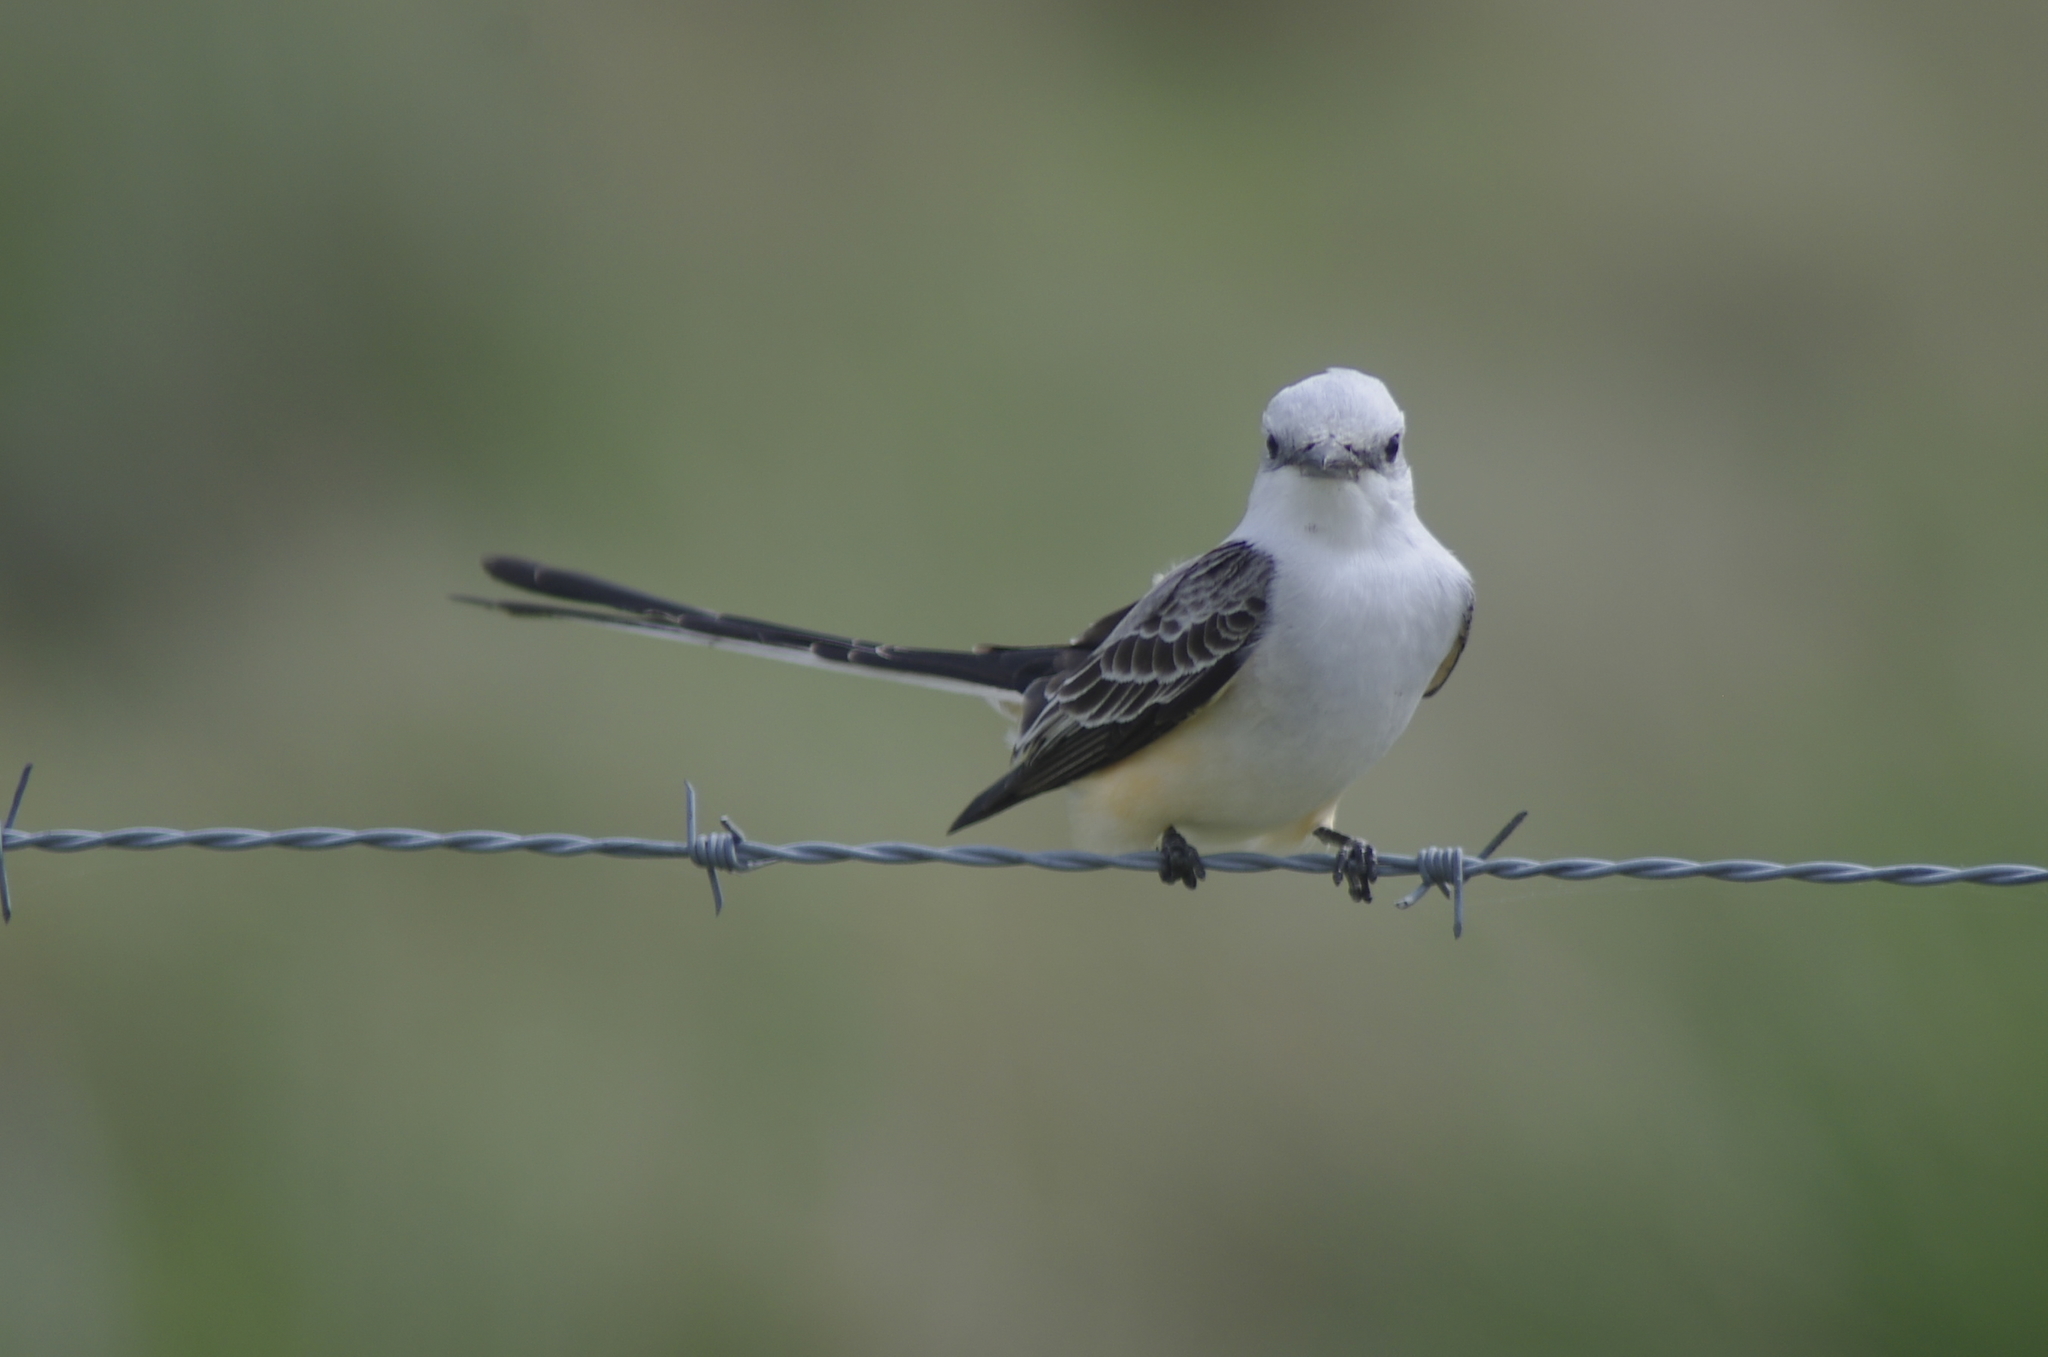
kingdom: Animalia
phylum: Chordata
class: Aves
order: Passeriformes
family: Tyrannidae
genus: Tyrannus
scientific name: Tyrannus forficatus
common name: Scissor-tailed flycatcher
